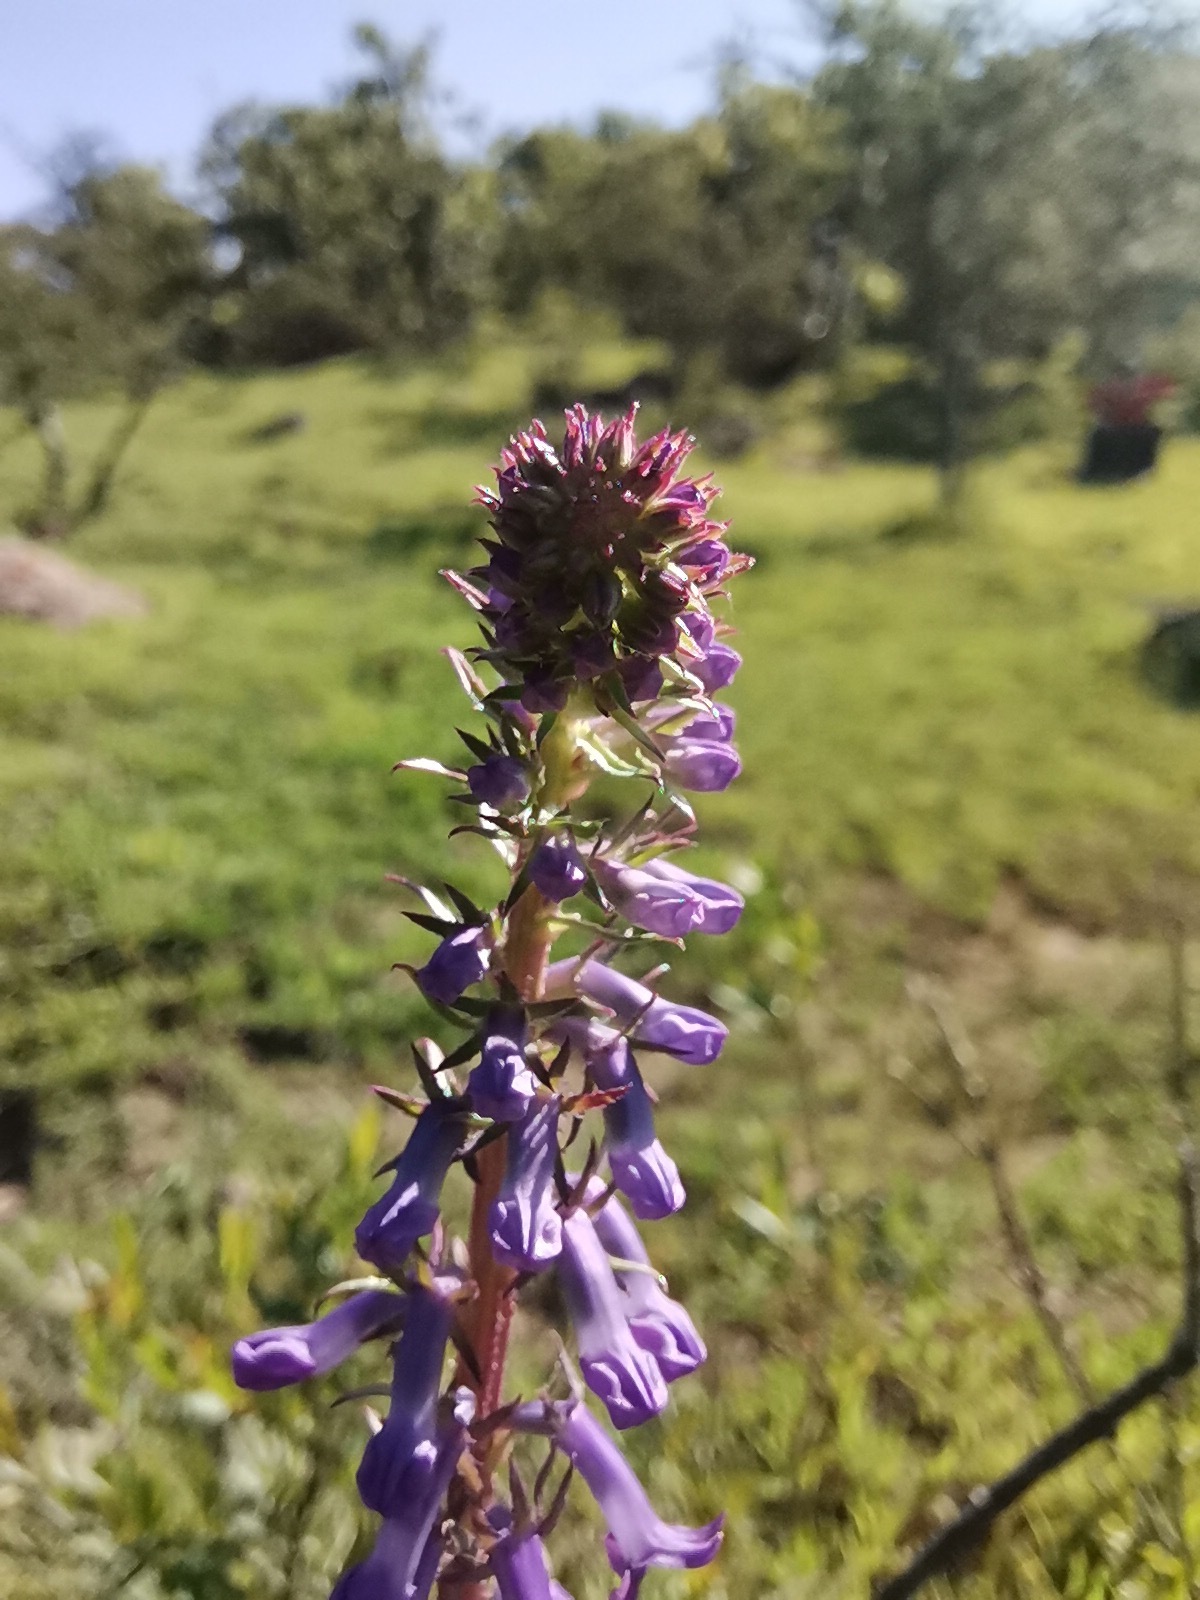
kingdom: Plantae
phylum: Tracheophyta
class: Magnoliopsida
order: Asterales
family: Campanulaceae
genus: Lobelia
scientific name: Lobelia fenestralis
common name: Leafy lobelia
